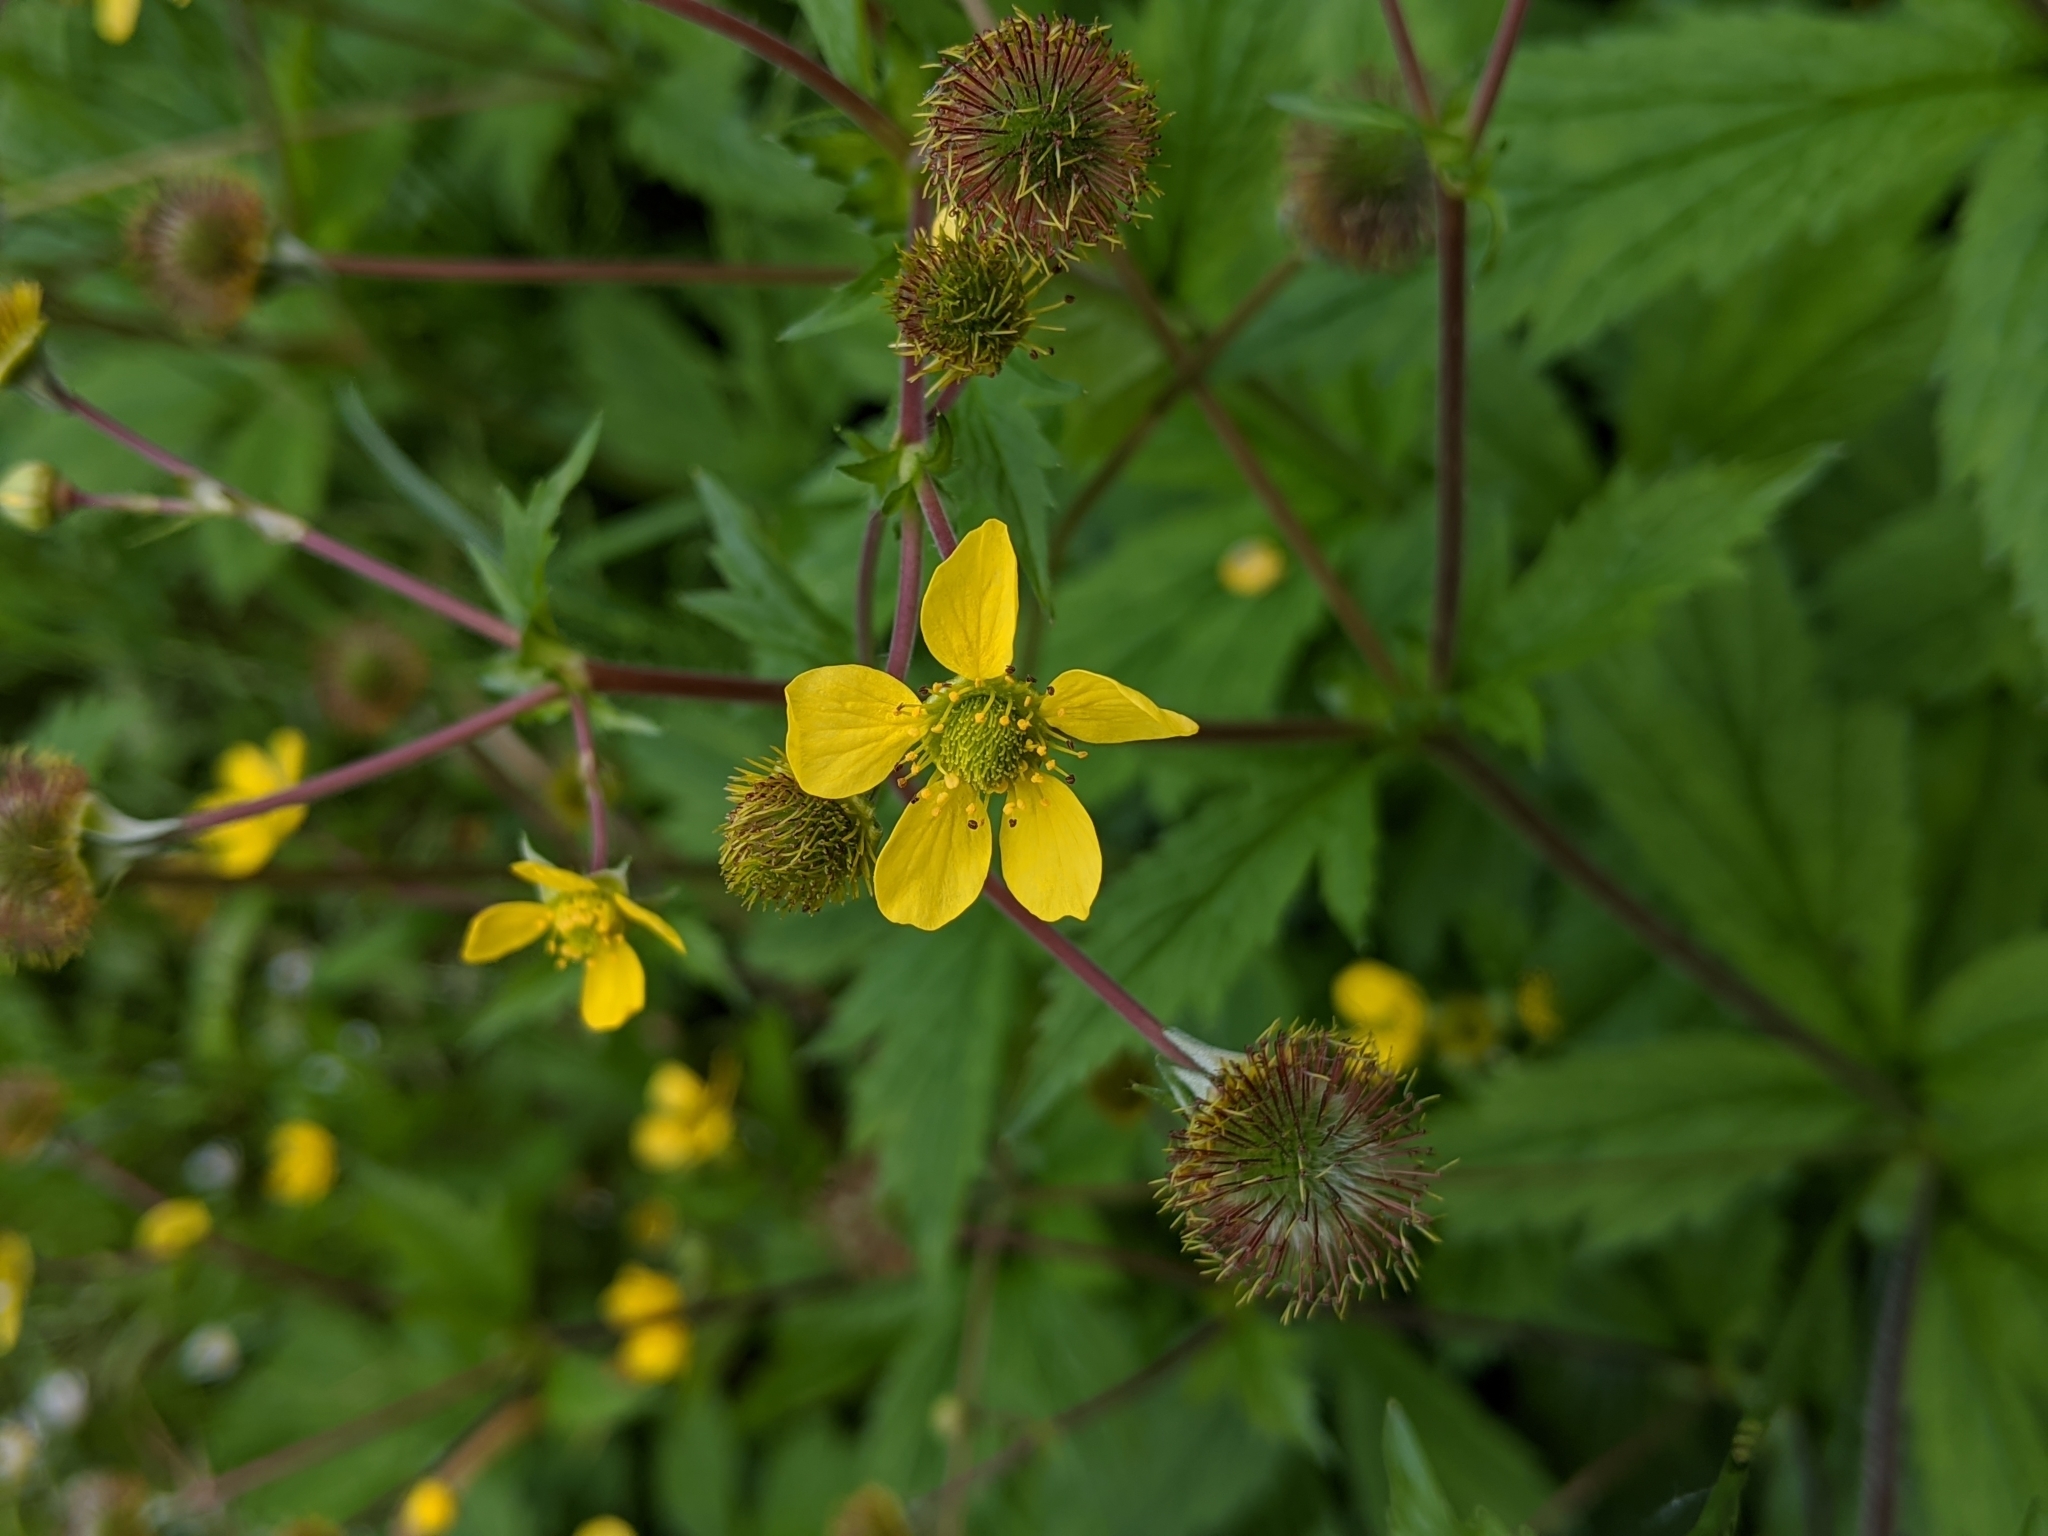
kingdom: Plantae
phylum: Tracheophyta
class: Magnoliopsida
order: Rosales
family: Rosaceae
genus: Geum
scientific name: Geum macrophyllum
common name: Large-leaved avens
